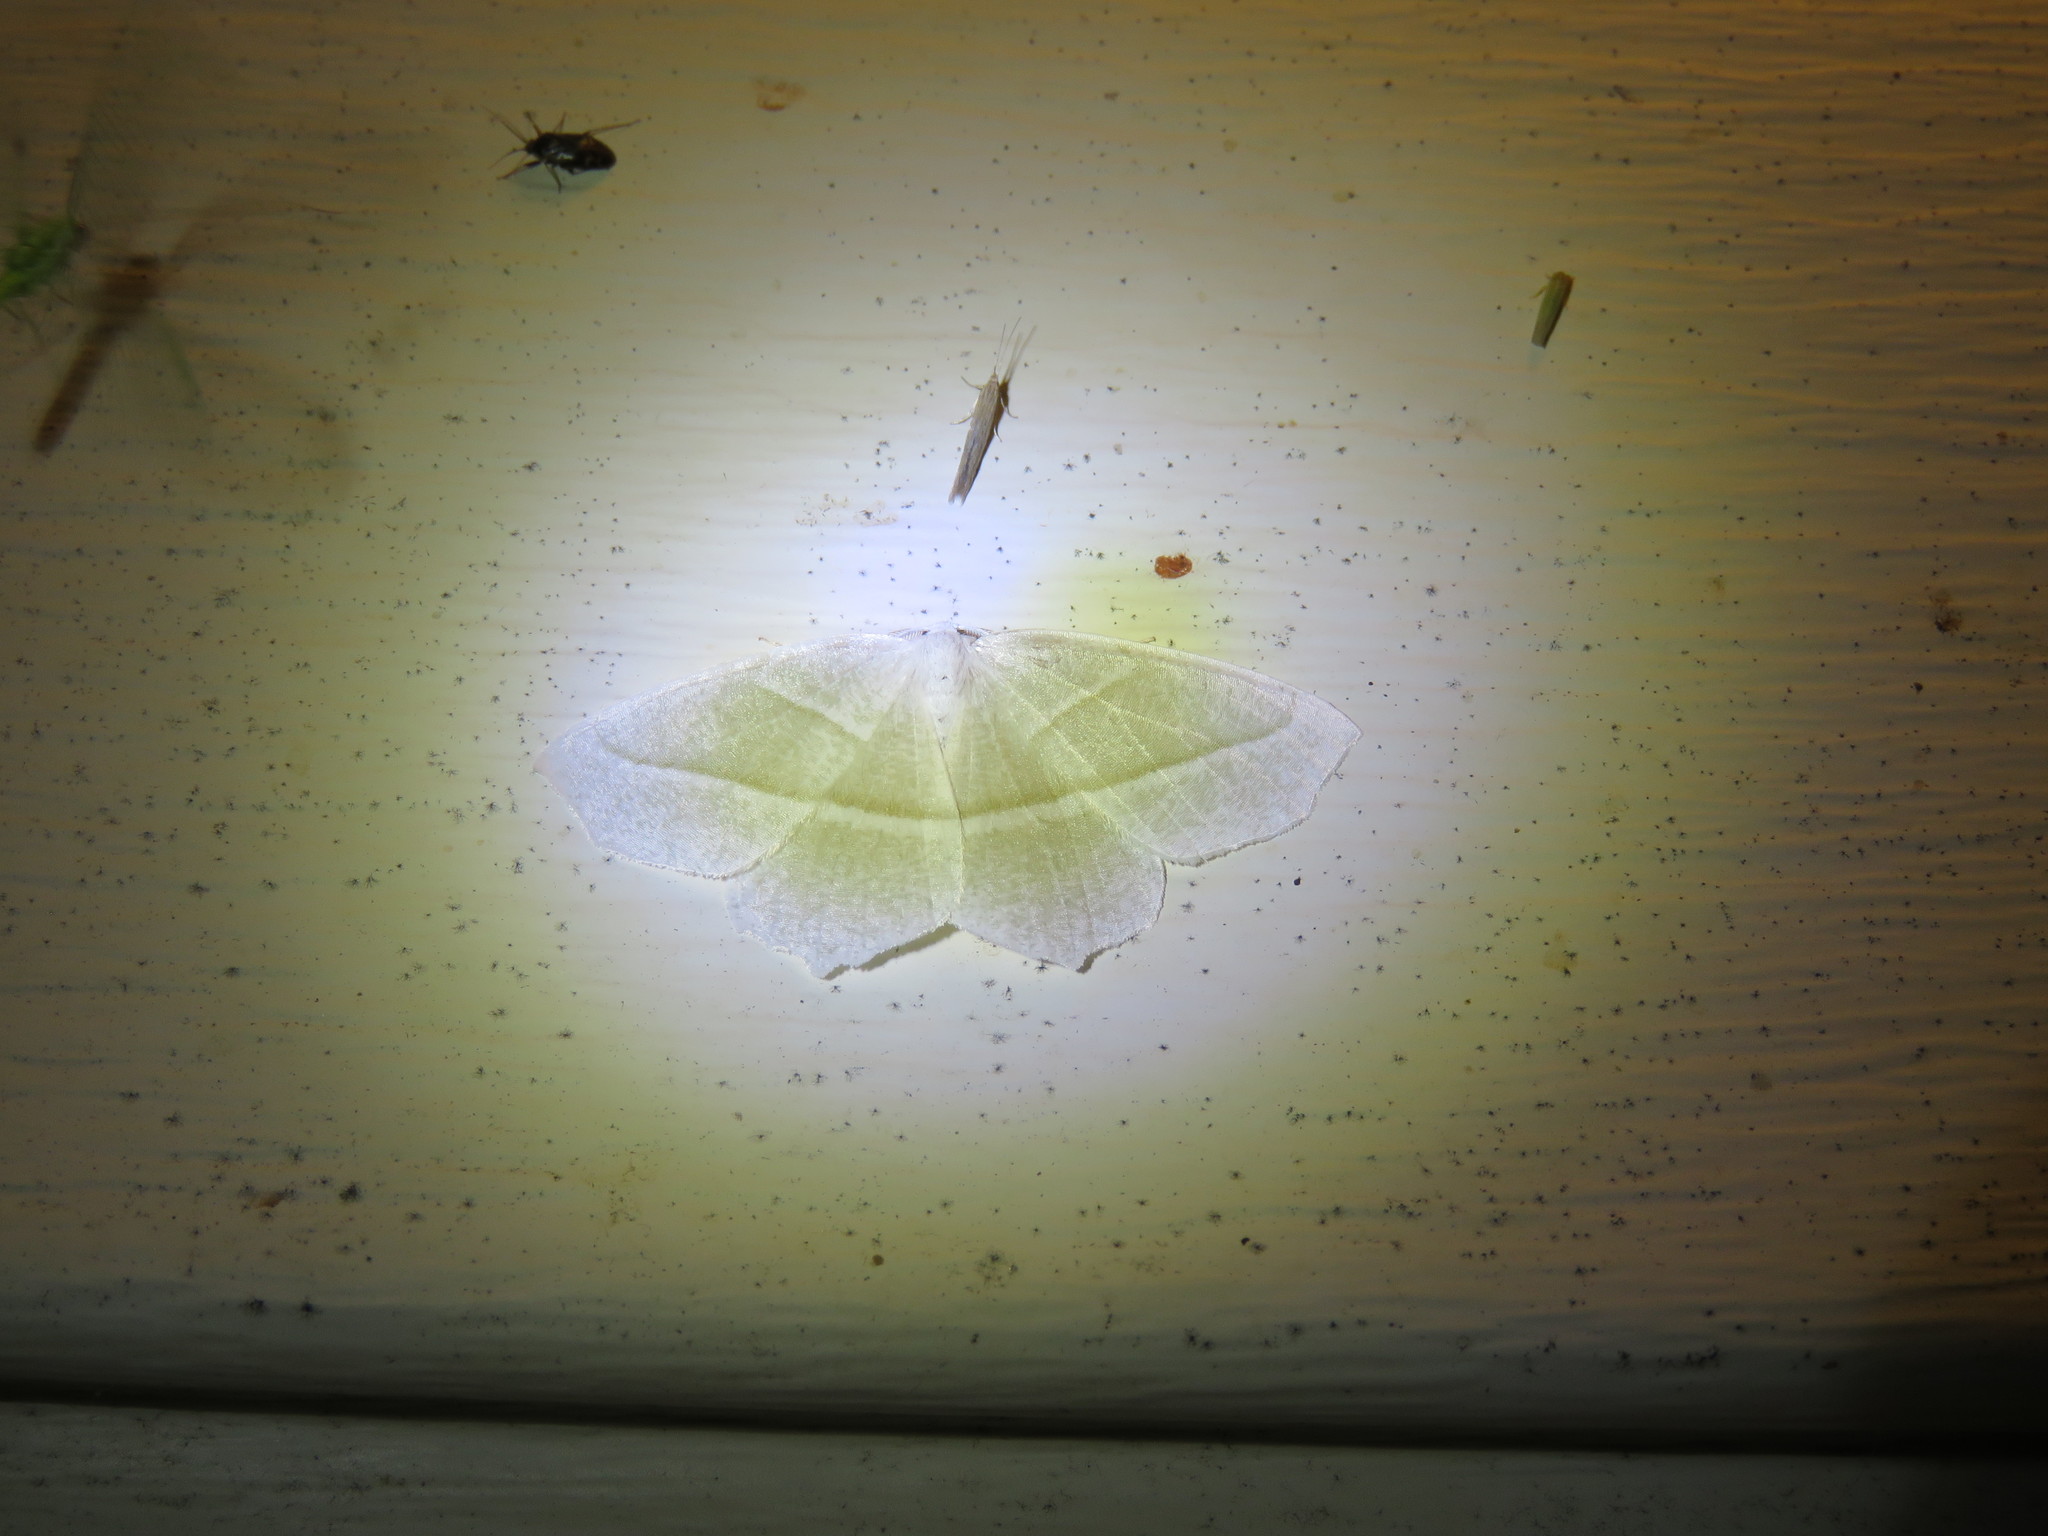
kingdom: Animalia
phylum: Arthropoda
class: Insecta
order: Lepidoptera
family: Geometridae
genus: Campaea
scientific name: Campaea perlata
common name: Fringed looper
